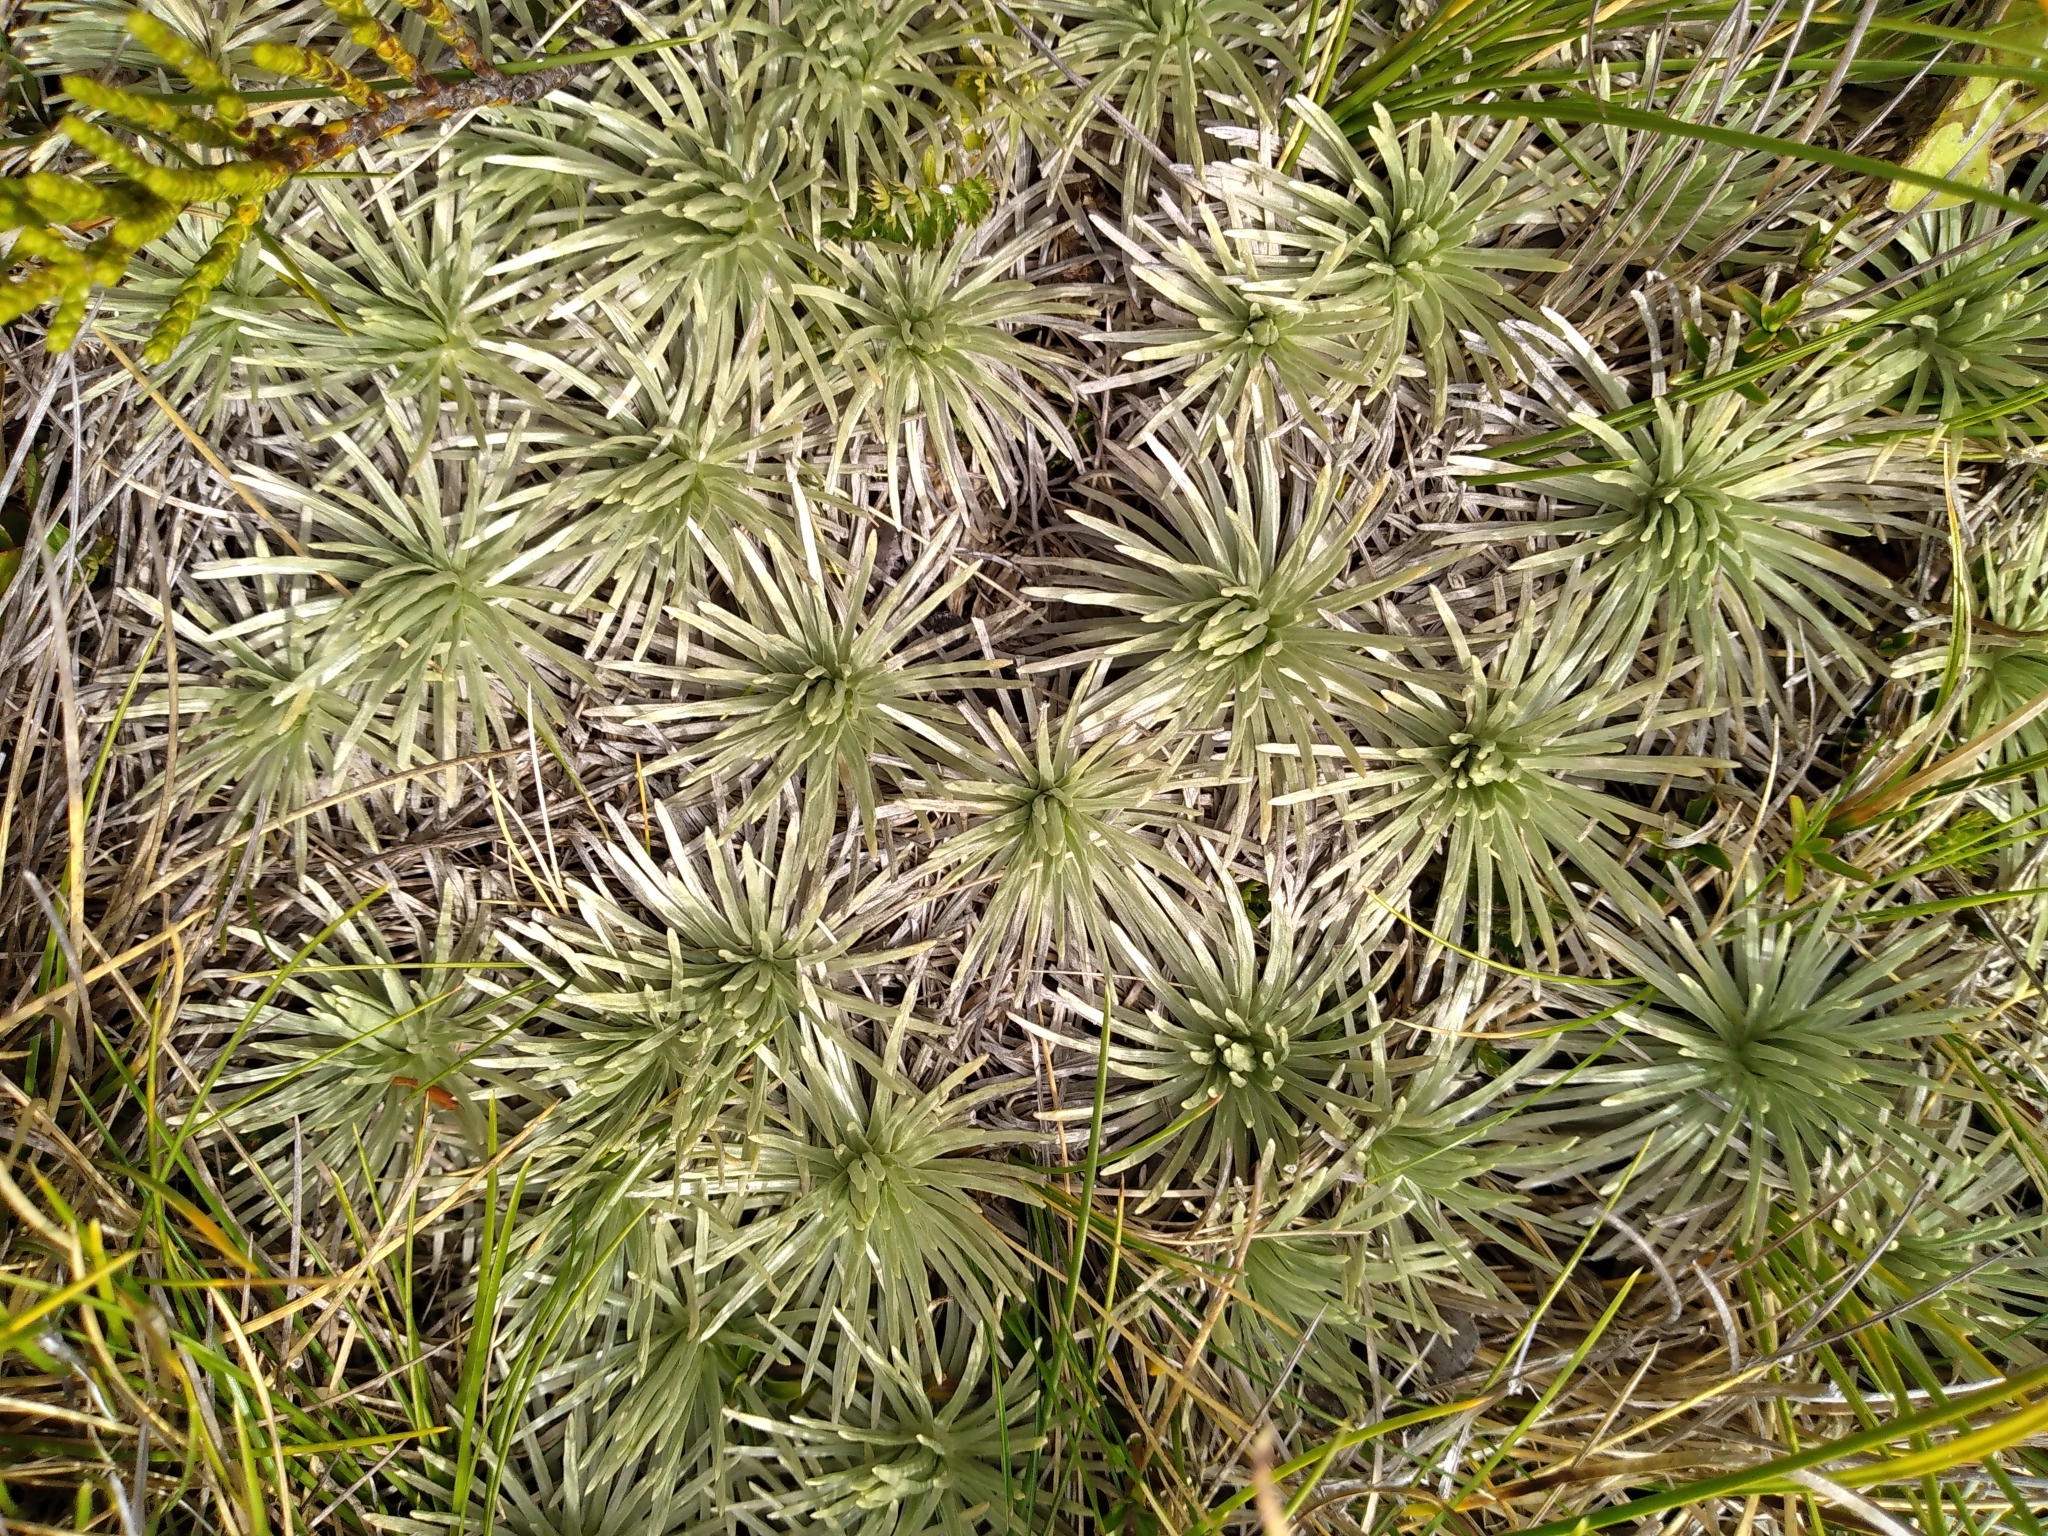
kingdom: Plantae
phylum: Tracheophyta
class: Magnoliopsida
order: Asterales
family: Asteraceae
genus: Celmisia
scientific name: Celmisia sessiliflora
